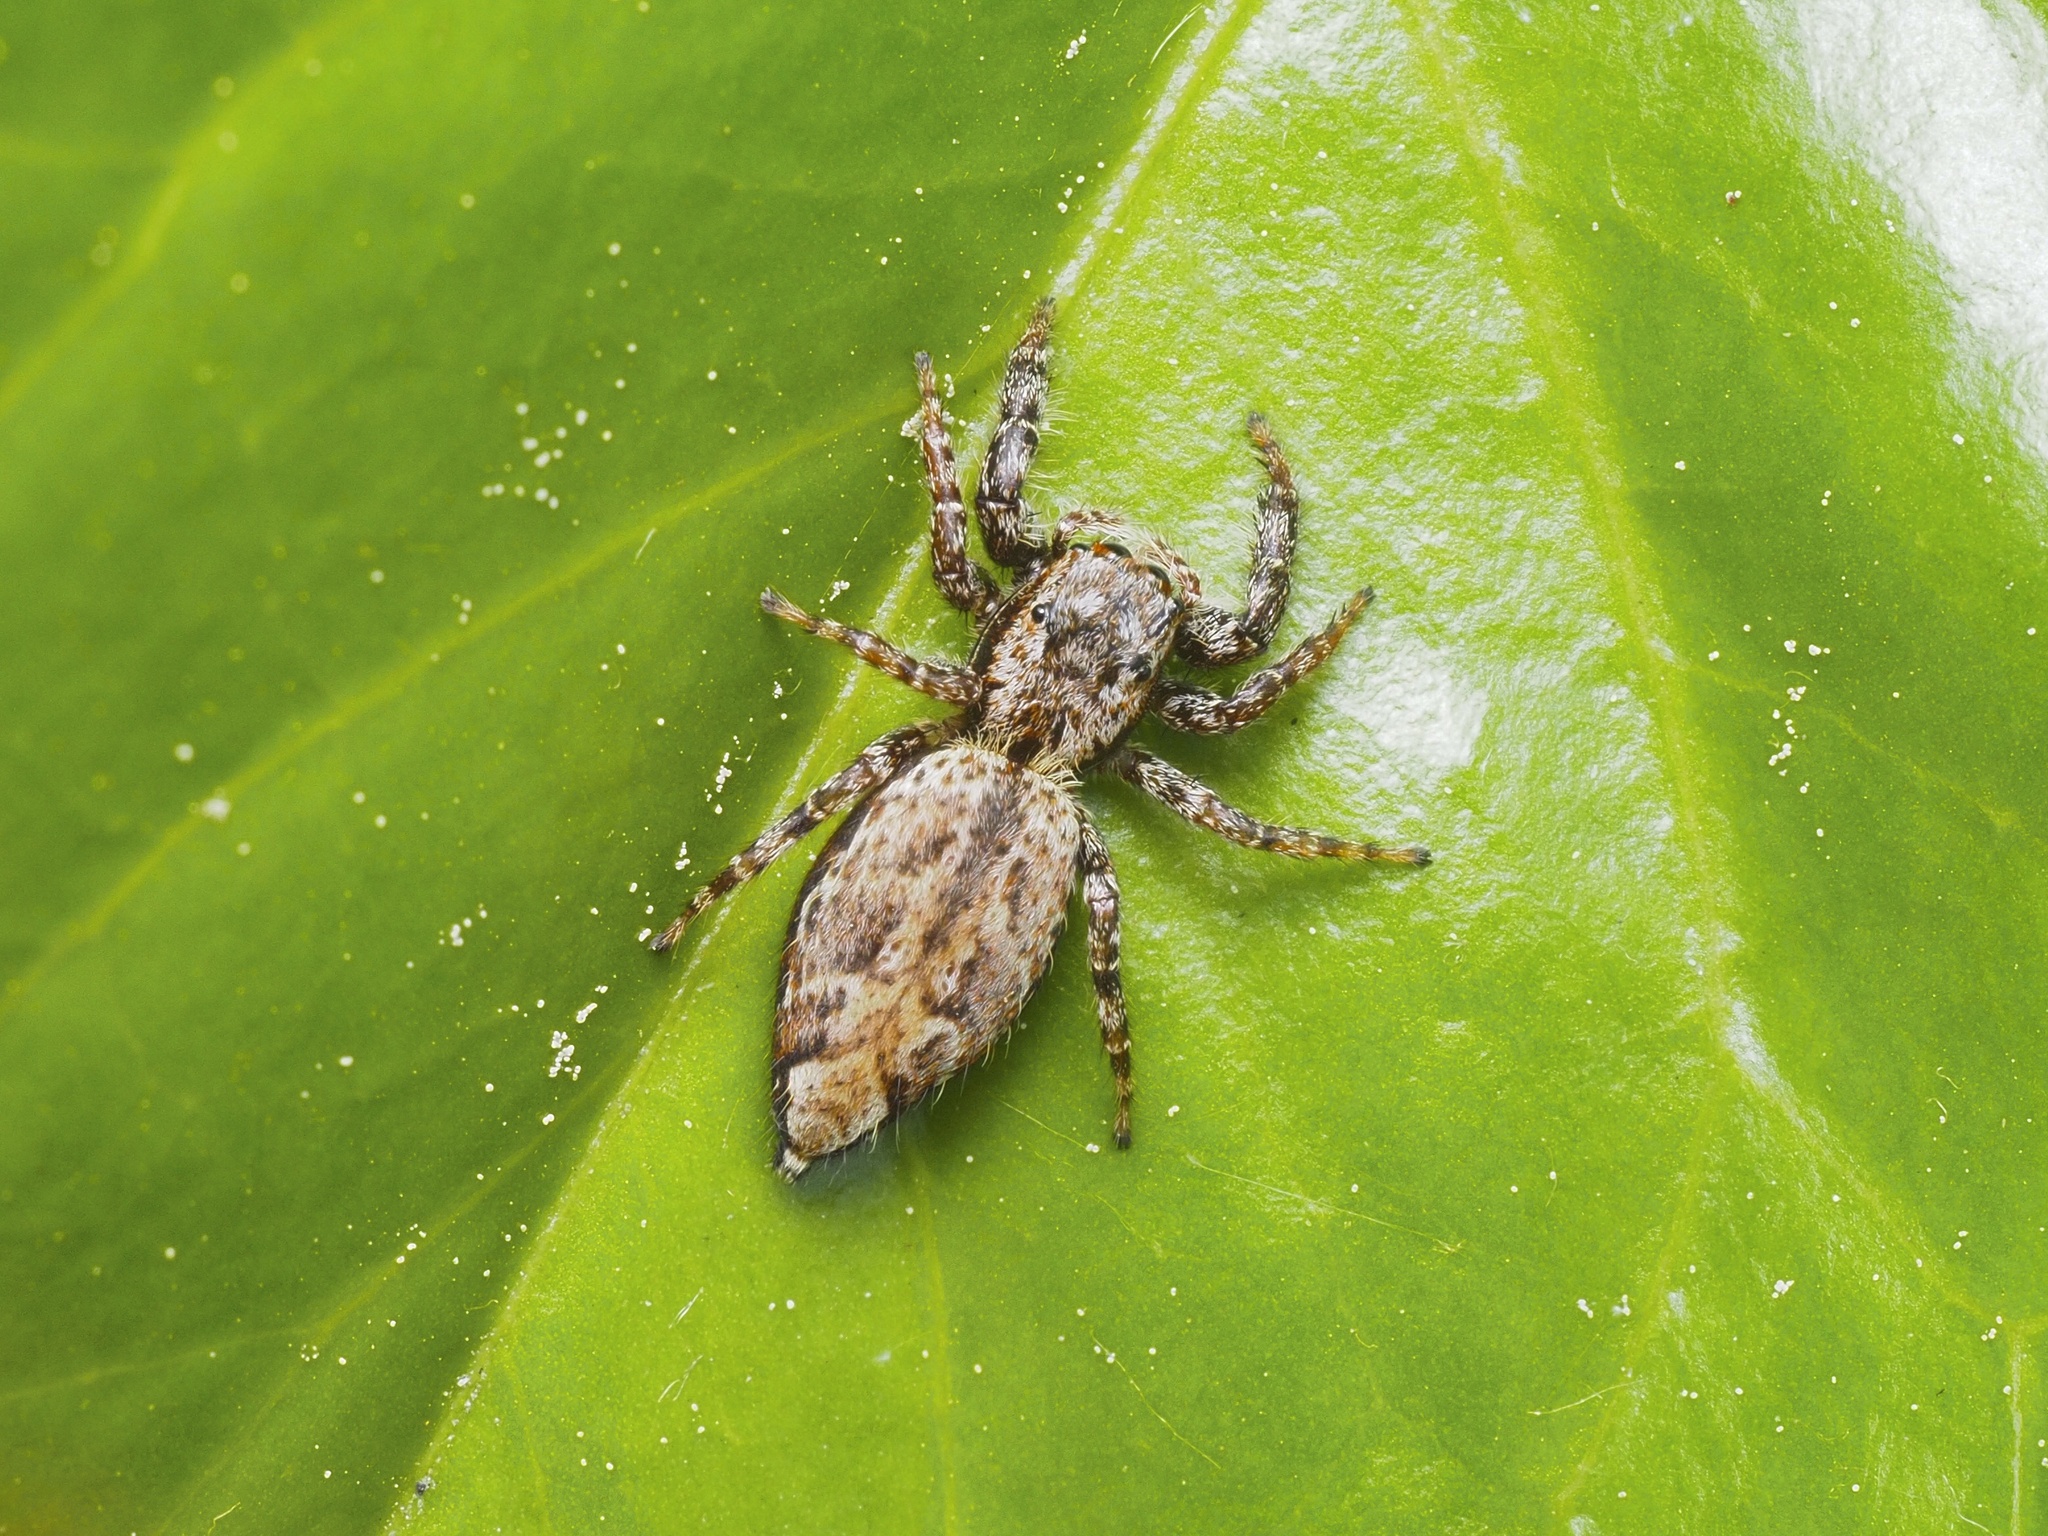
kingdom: Animalia
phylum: Arthropoda
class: Arachnida
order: Araneae
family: Salticidae
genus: Marpissa
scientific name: Marpissa muscosa
